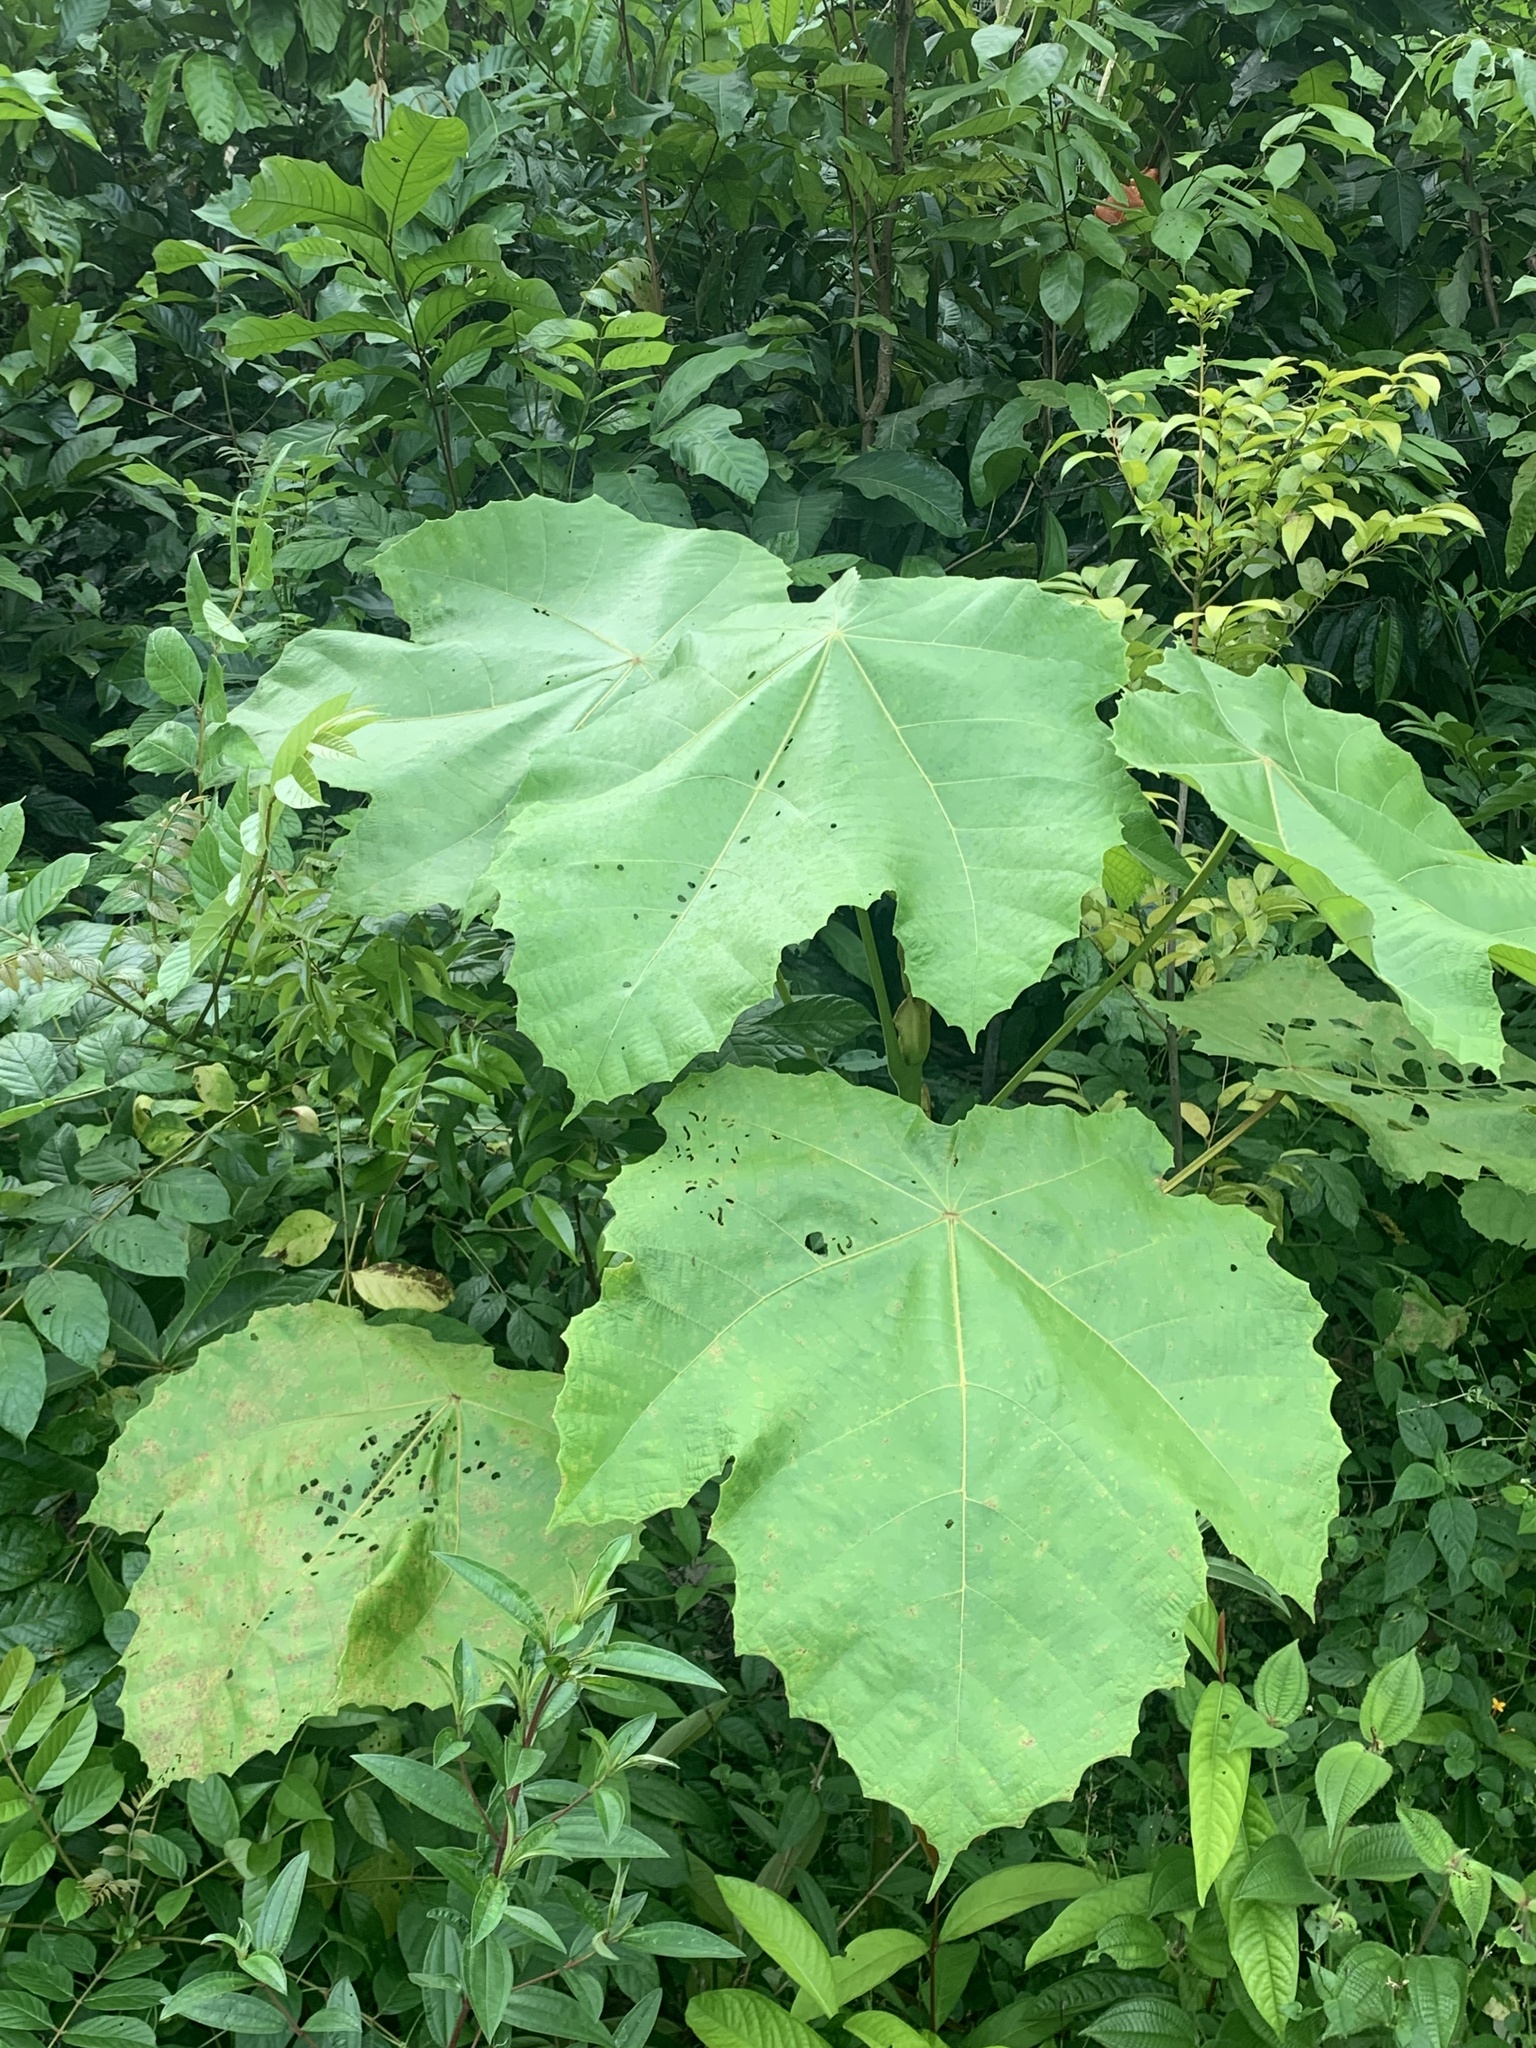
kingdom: Plantae
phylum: Tracheophyta
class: Magnoliopsida
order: Malpighiales
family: Euphorbiaceae
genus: Macaranga
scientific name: Macaranga gigantea
